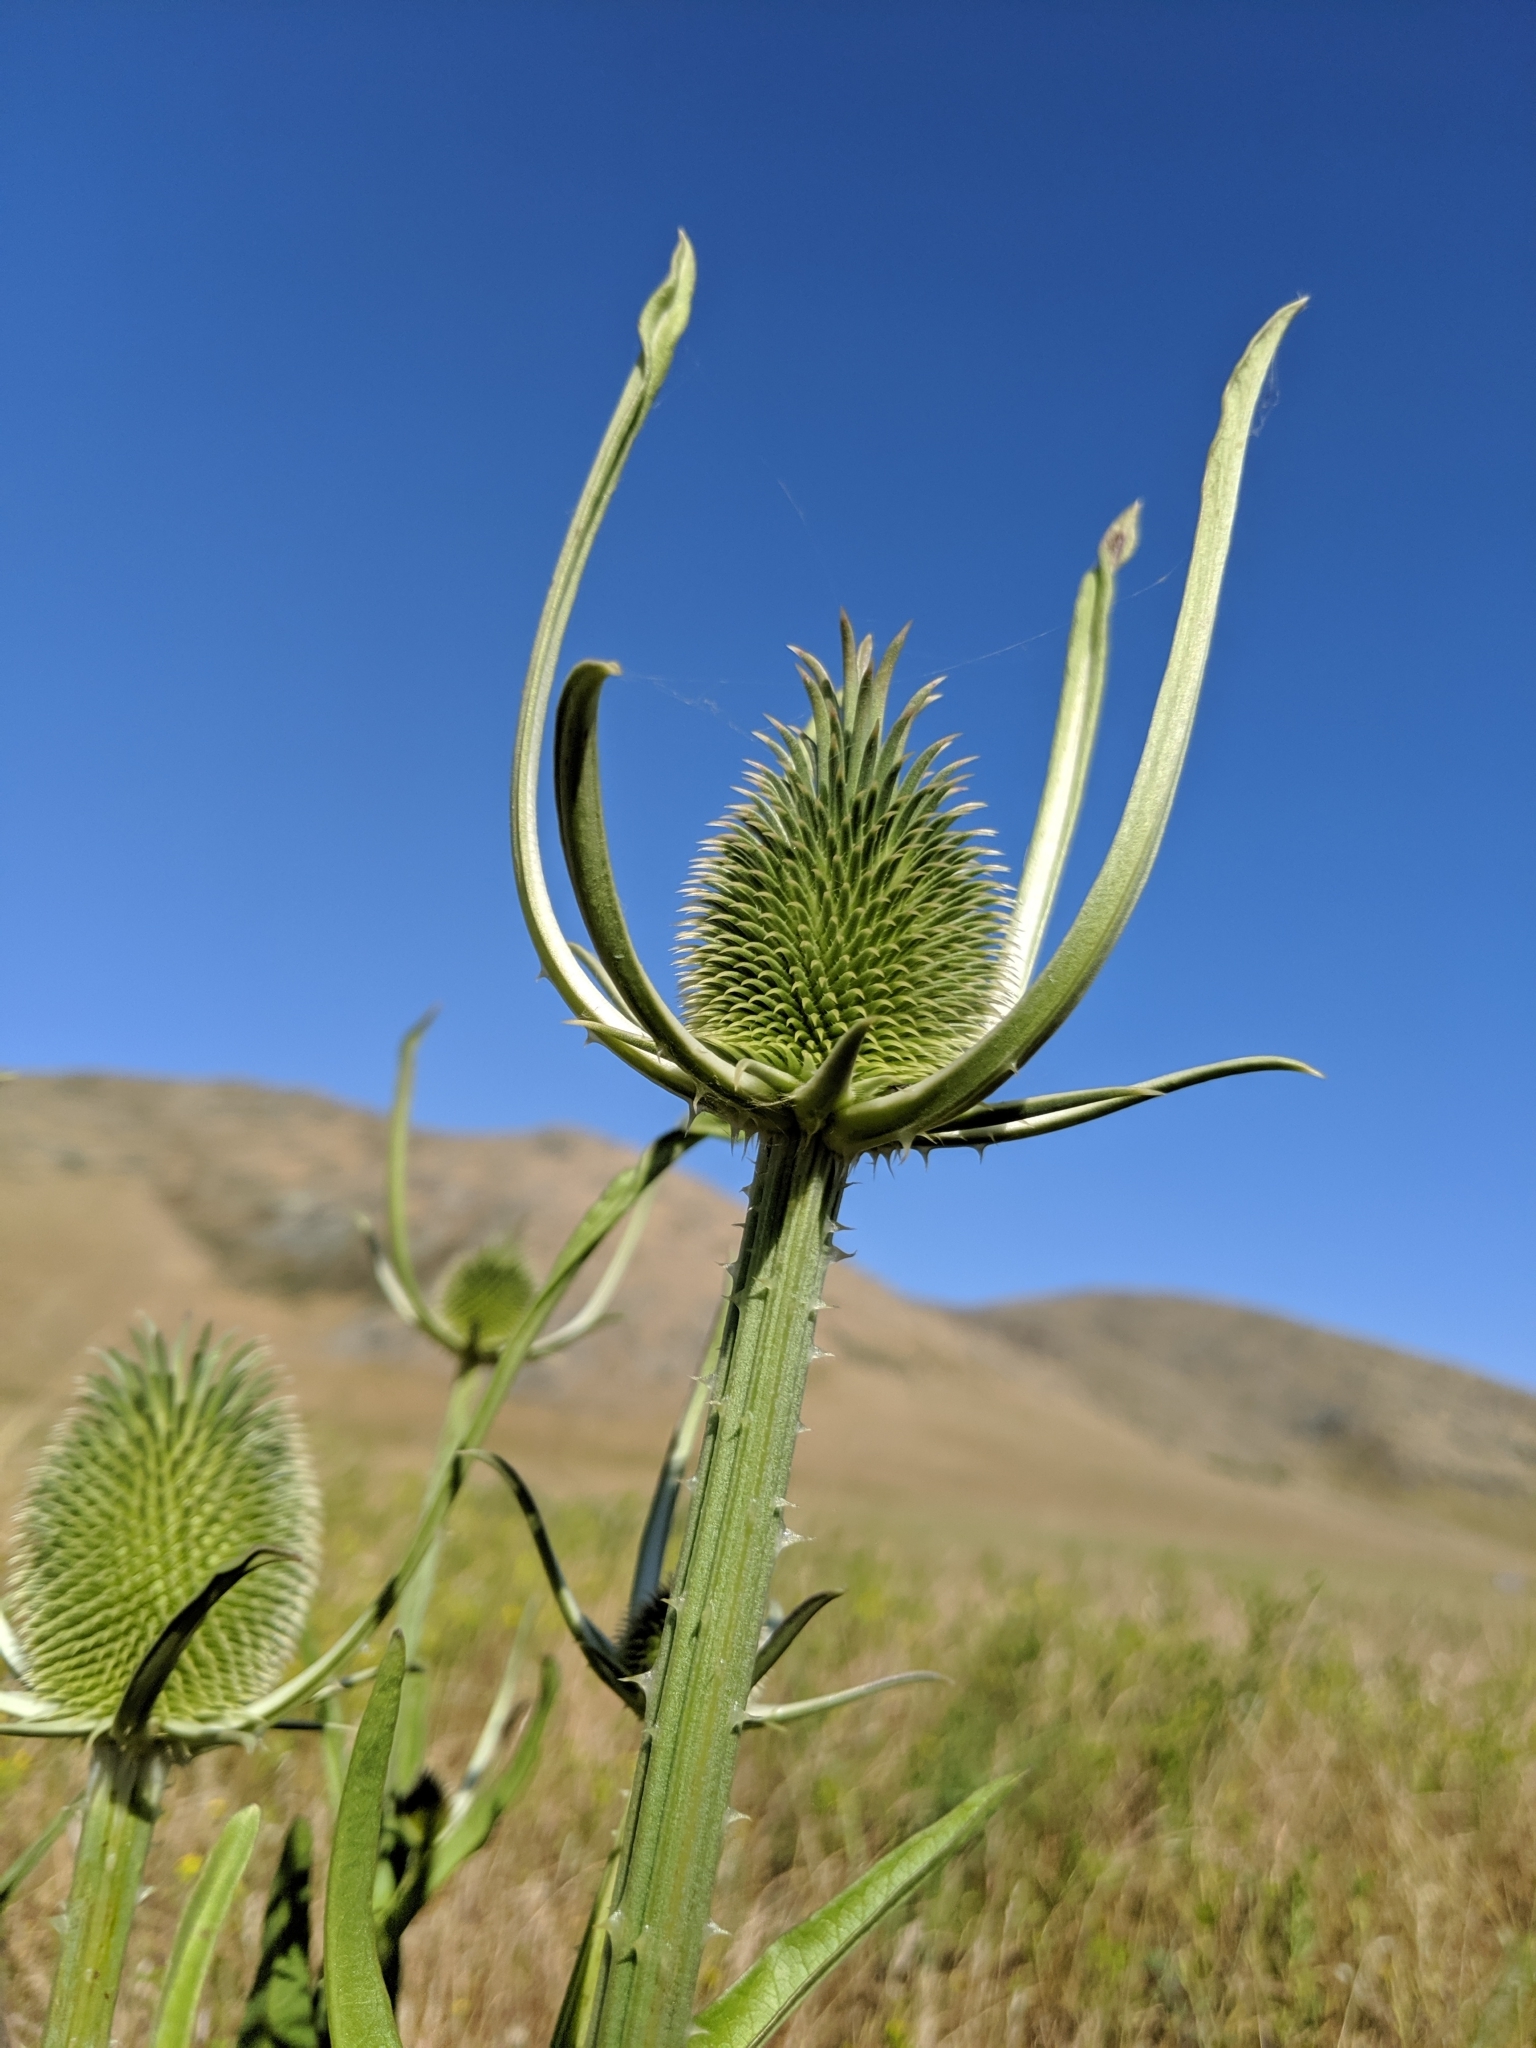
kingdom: Plantae
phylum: Tracheophyta
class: Magnoliopsida
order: Dipsacales
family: Caprifoliaceae
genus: Dipsacus
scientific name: Dipsacus sativus
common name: Fuller's teasel
